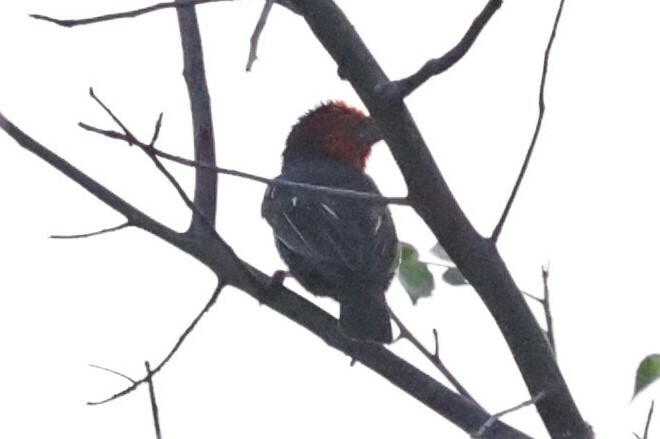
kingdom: Animalia
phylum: Chordata
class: Aves
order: Piciformes
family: Lybiidae
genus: Lybius
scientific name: Lybius guifsobalito
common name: Black-billed barbet
